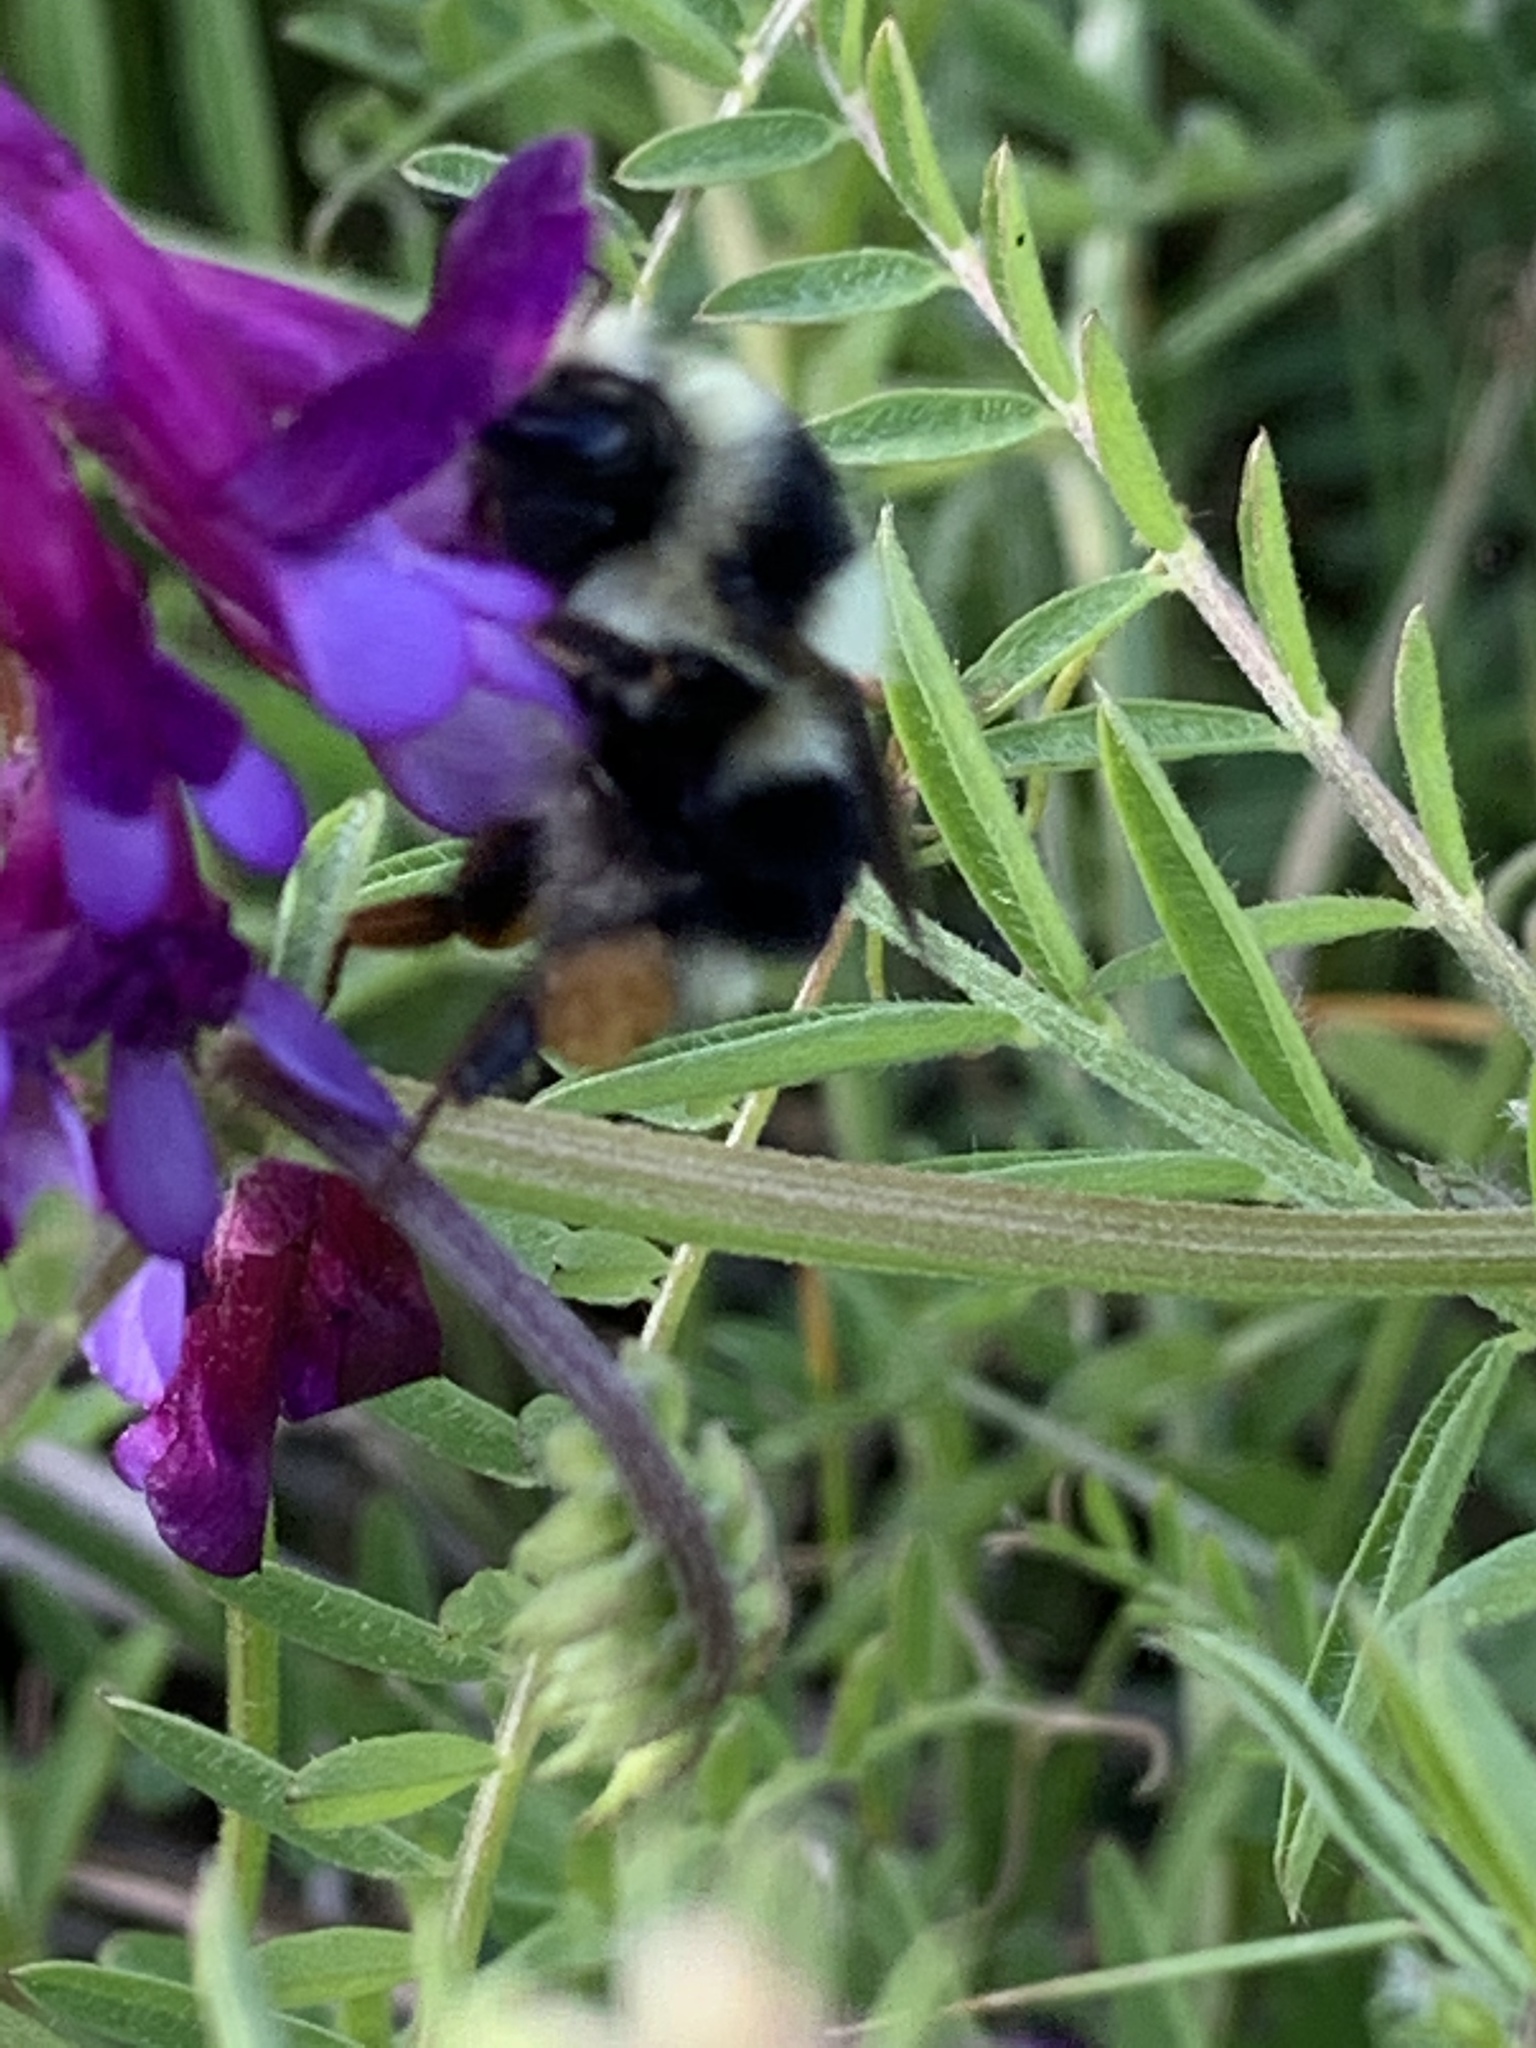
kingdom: Animalia
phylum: Arthropoda
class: Insecta
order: Hymenoptera
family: Apidae
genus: Bombus
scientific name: Bombus melanopygus
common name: Black tail bumble bee
